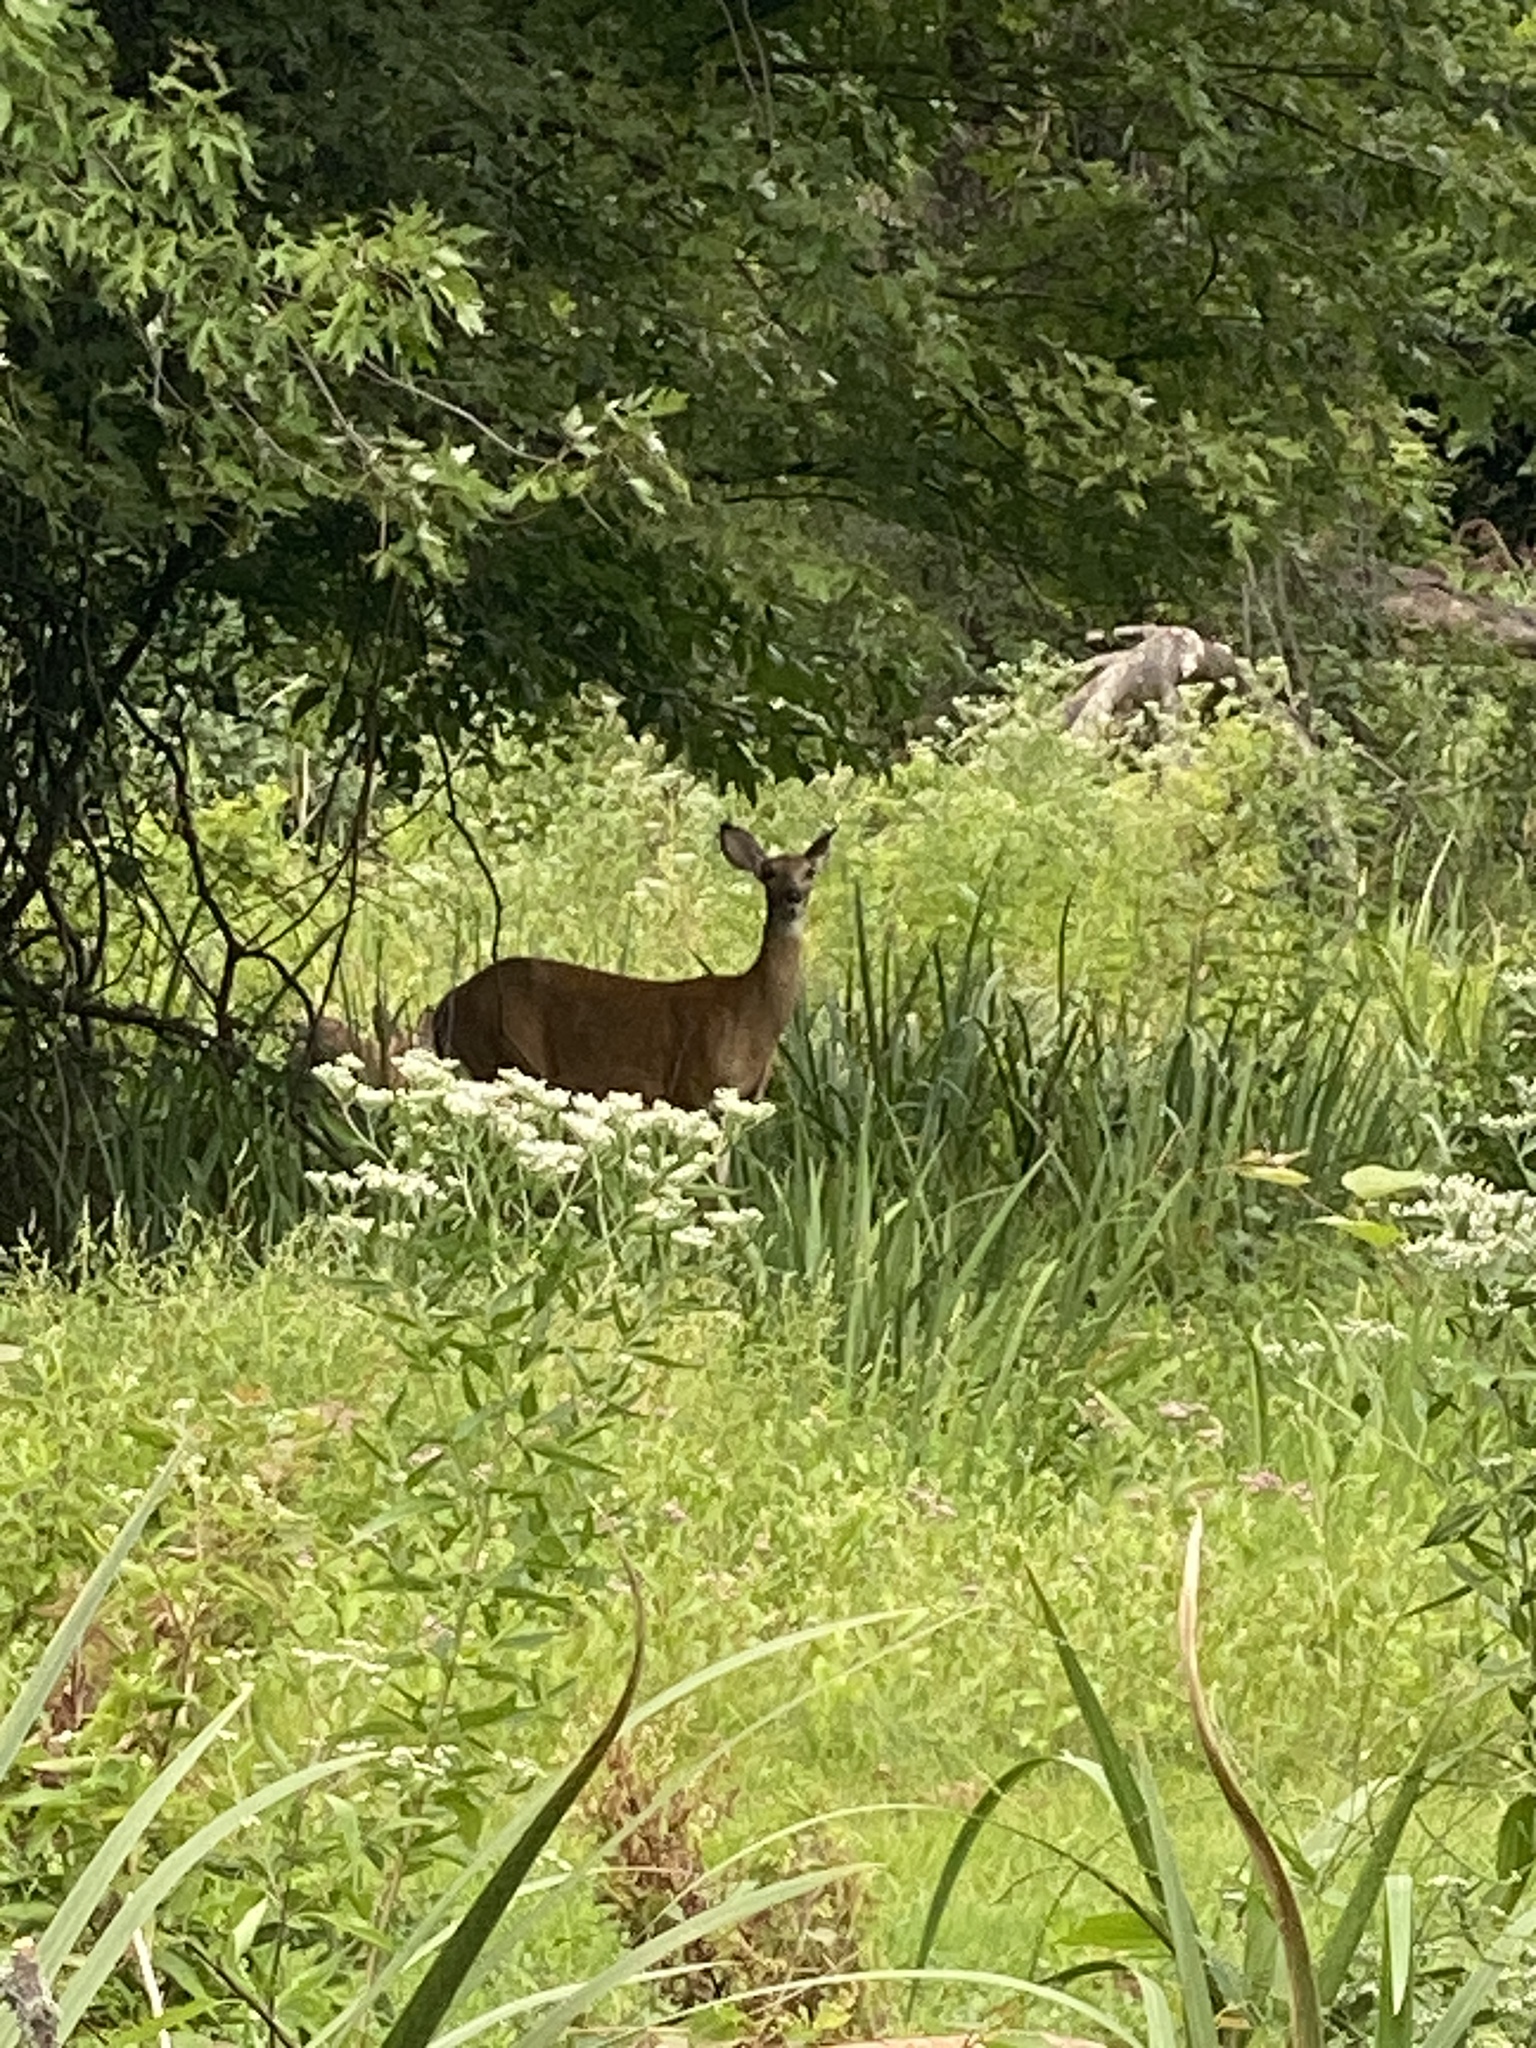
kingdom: Animalia
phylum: Chordata
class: Mammalia
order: Artiodactyla
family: Cervidae
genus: Odocoileus
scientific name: Odocoileus virginianus
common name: White-tailed deer
